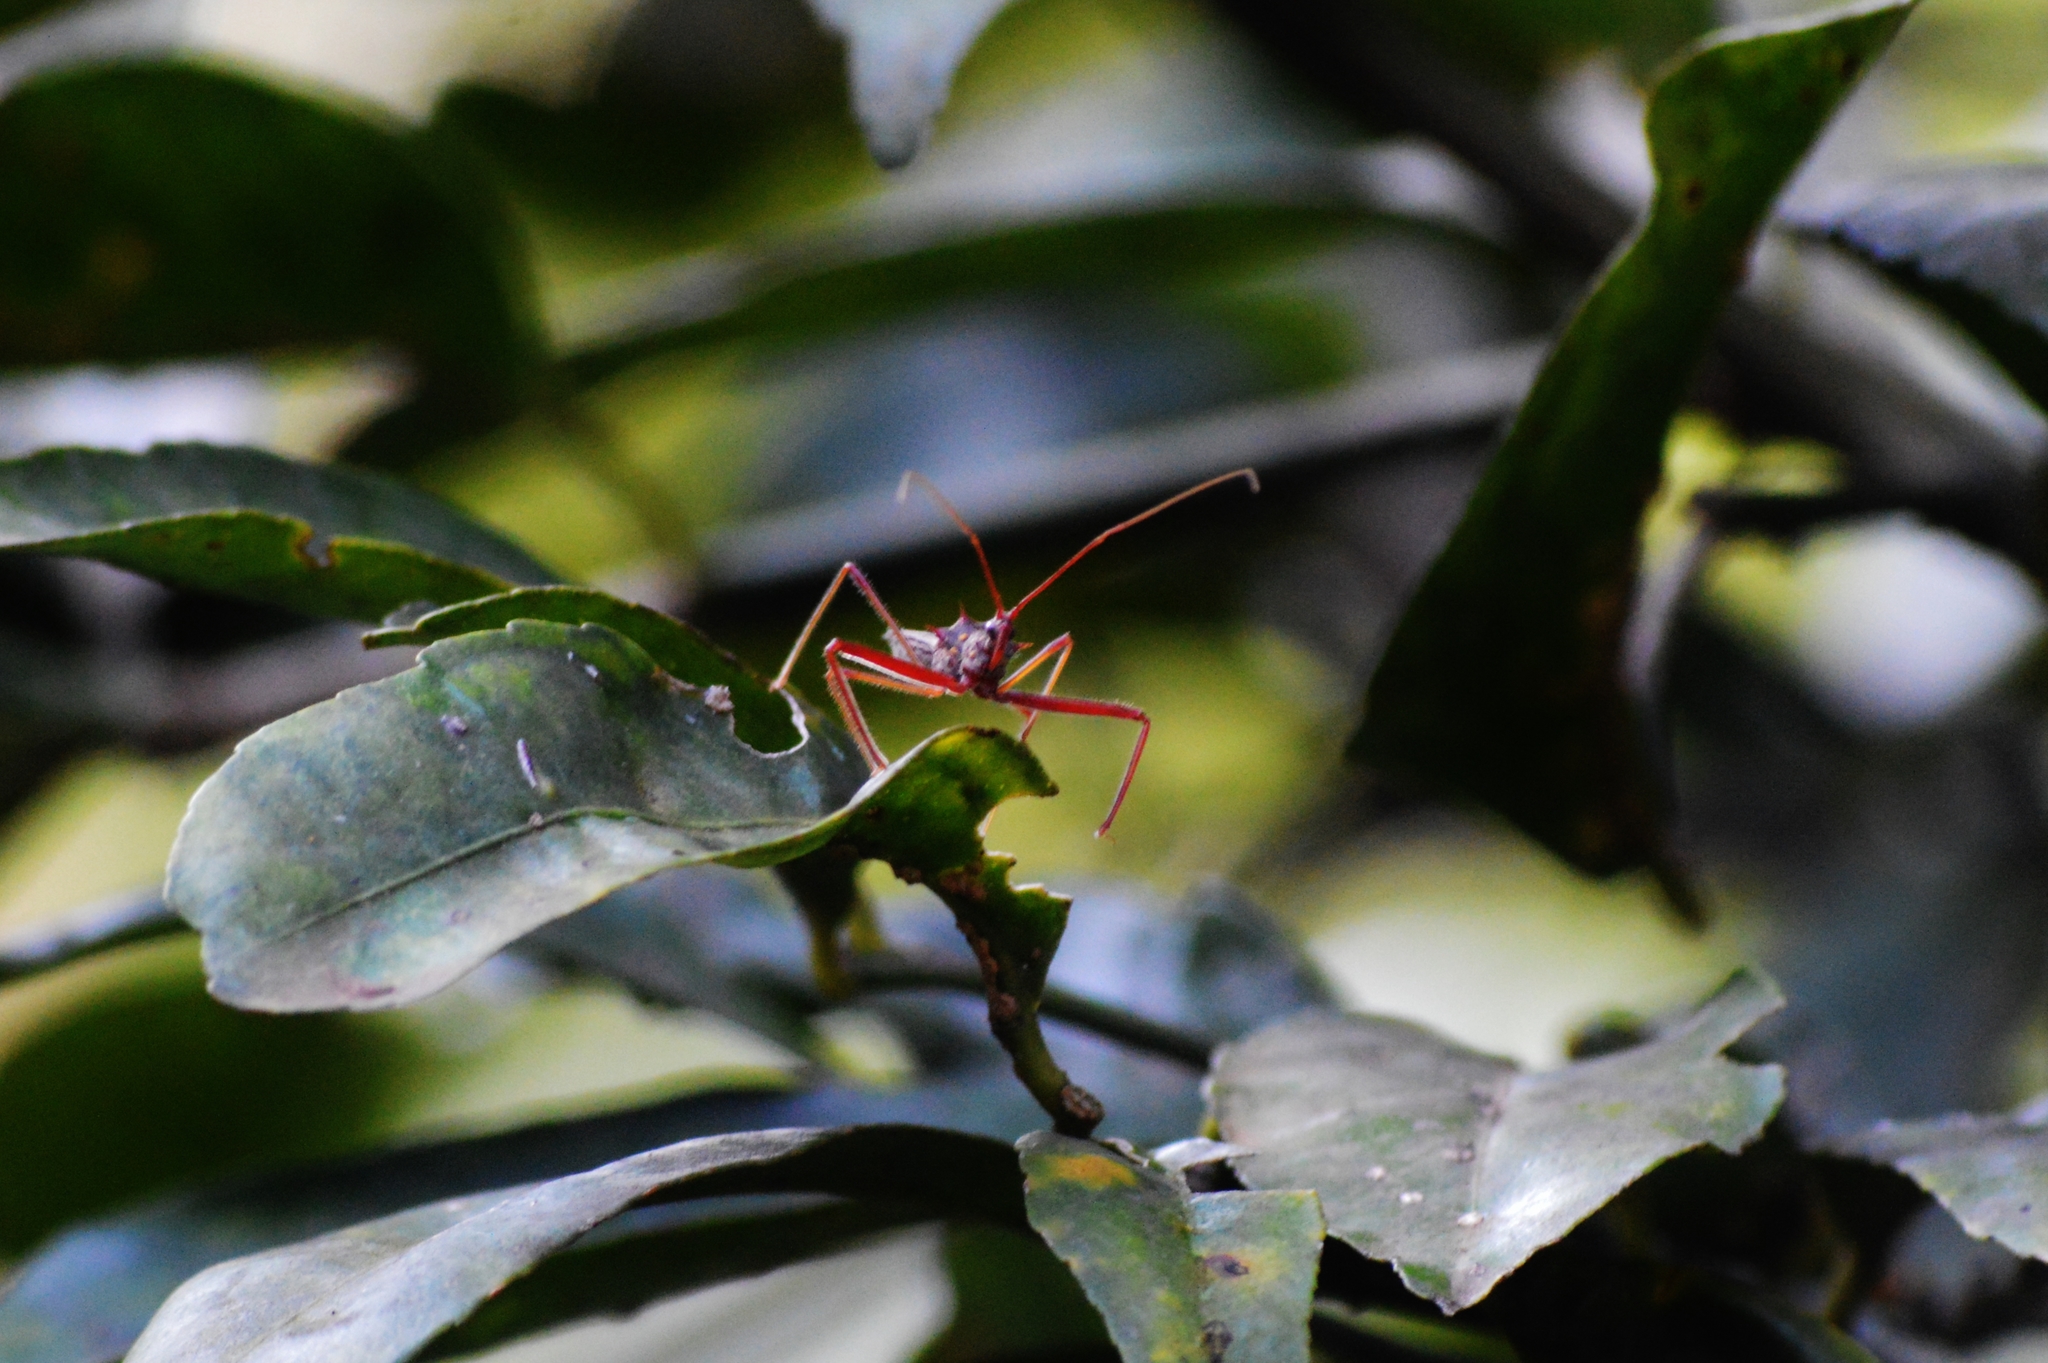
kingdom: Animalia
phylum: Arthropoda
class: Insecta
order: Hemiptera
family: Reduviidae
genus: Heza
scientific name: Heza binotata
